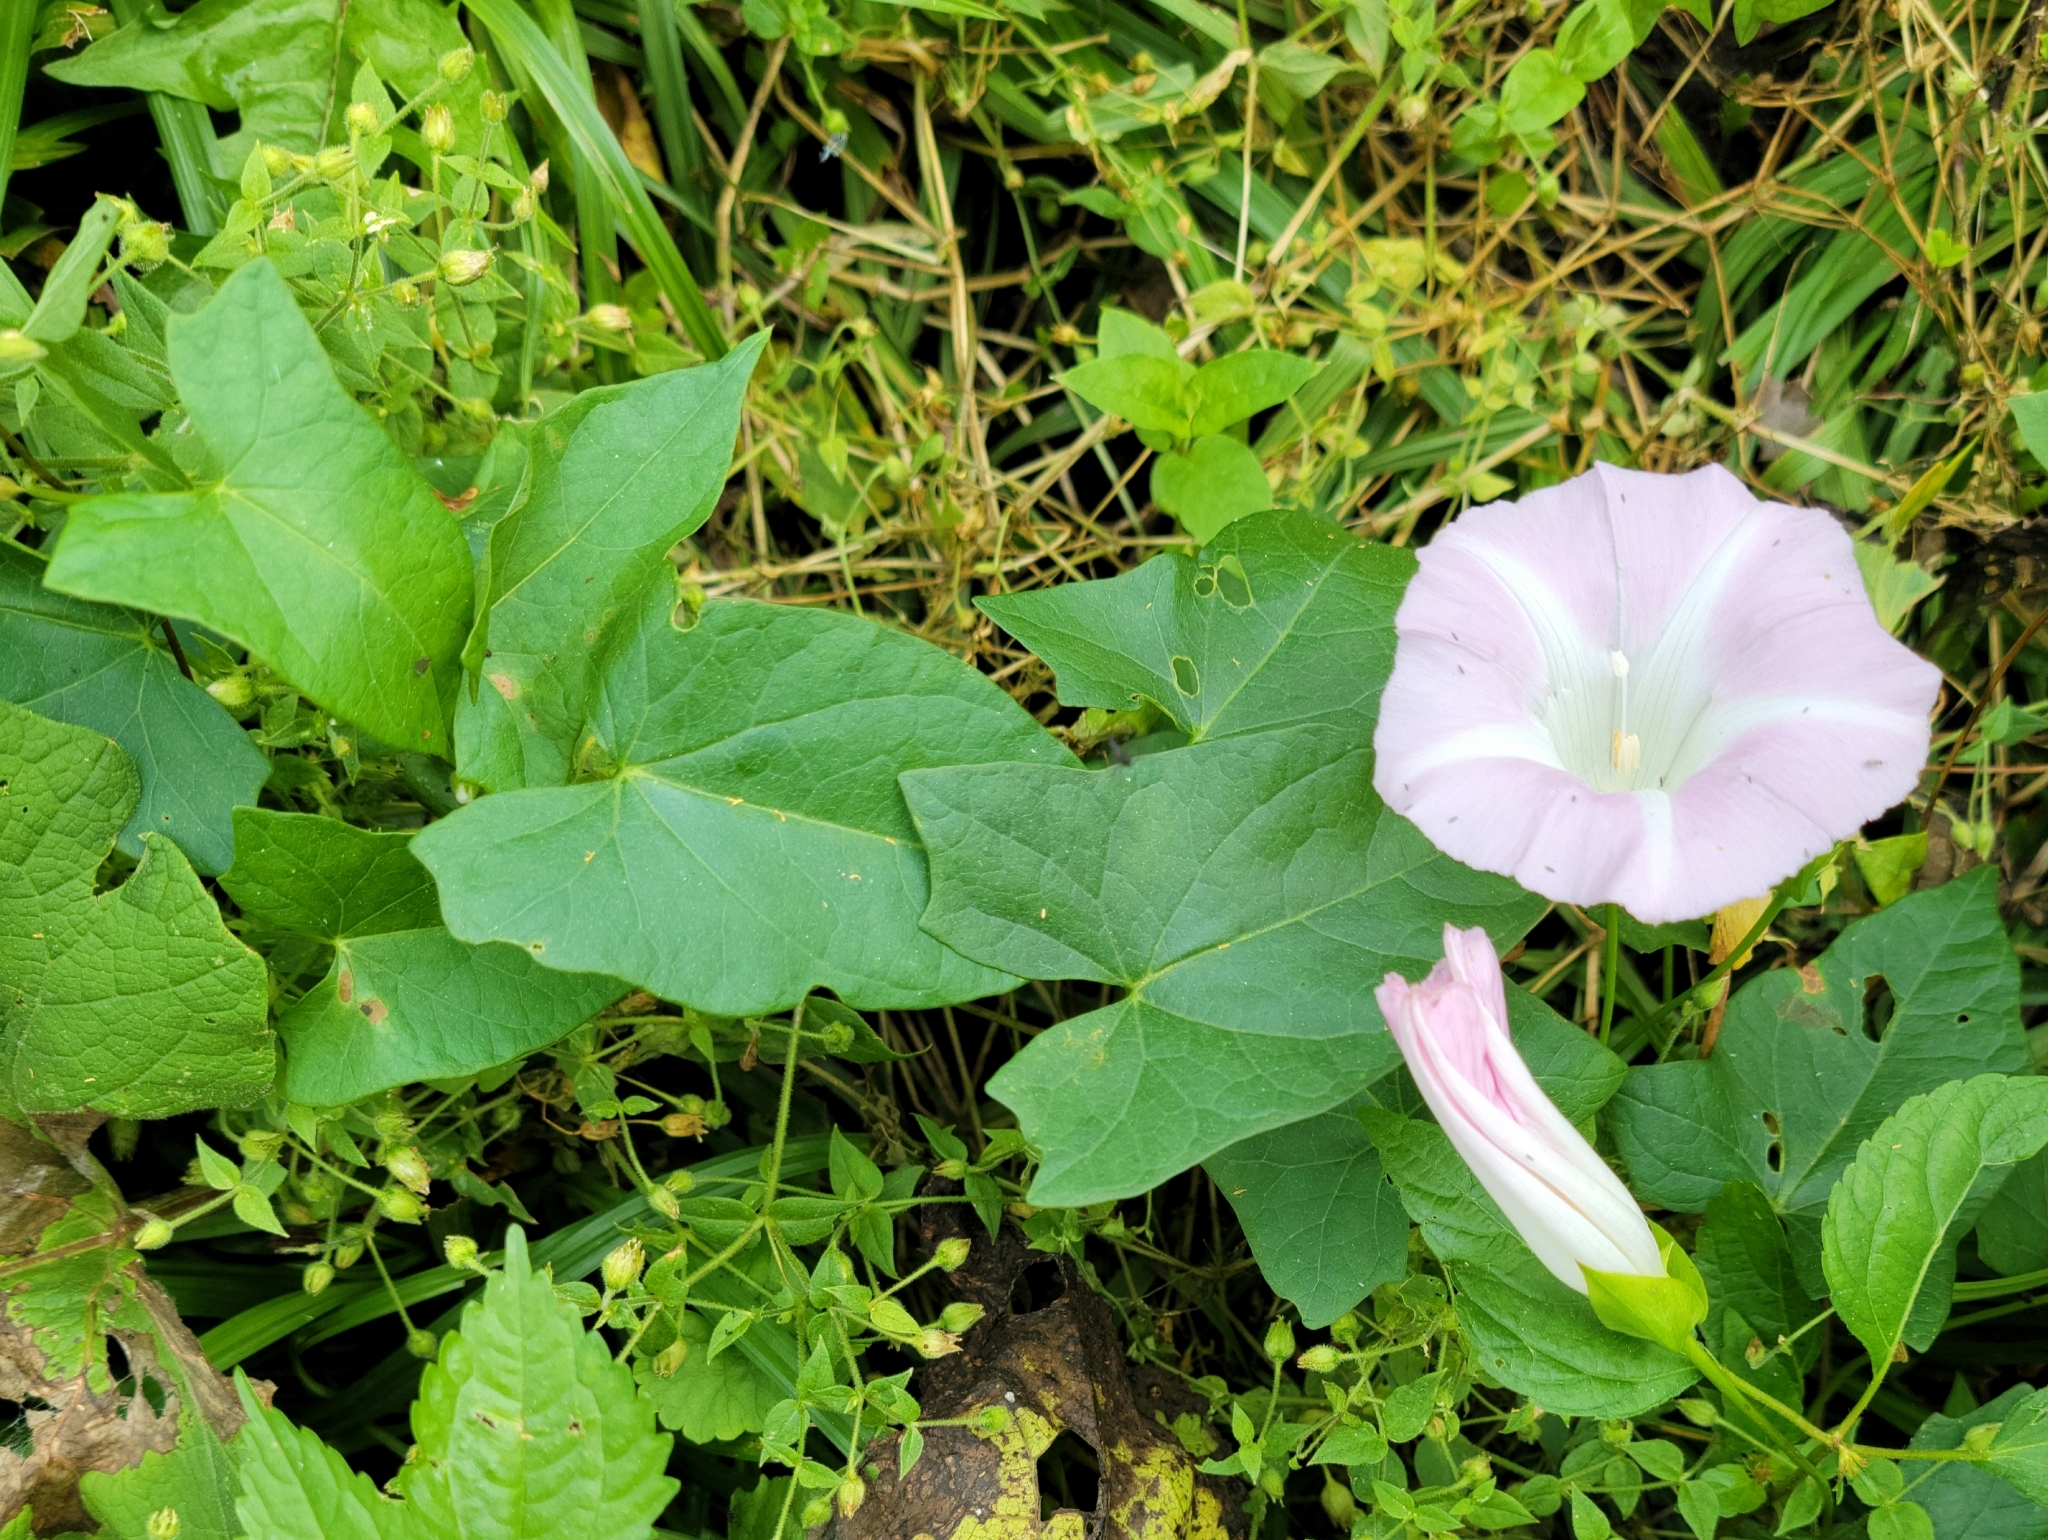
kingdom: Plantae
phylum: Tracheophyta
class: Magnoliopsida
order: Solanales
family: Convolvulaceae
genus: Calystegia
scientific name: Calystegia sepium
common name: Hedge bindweed
